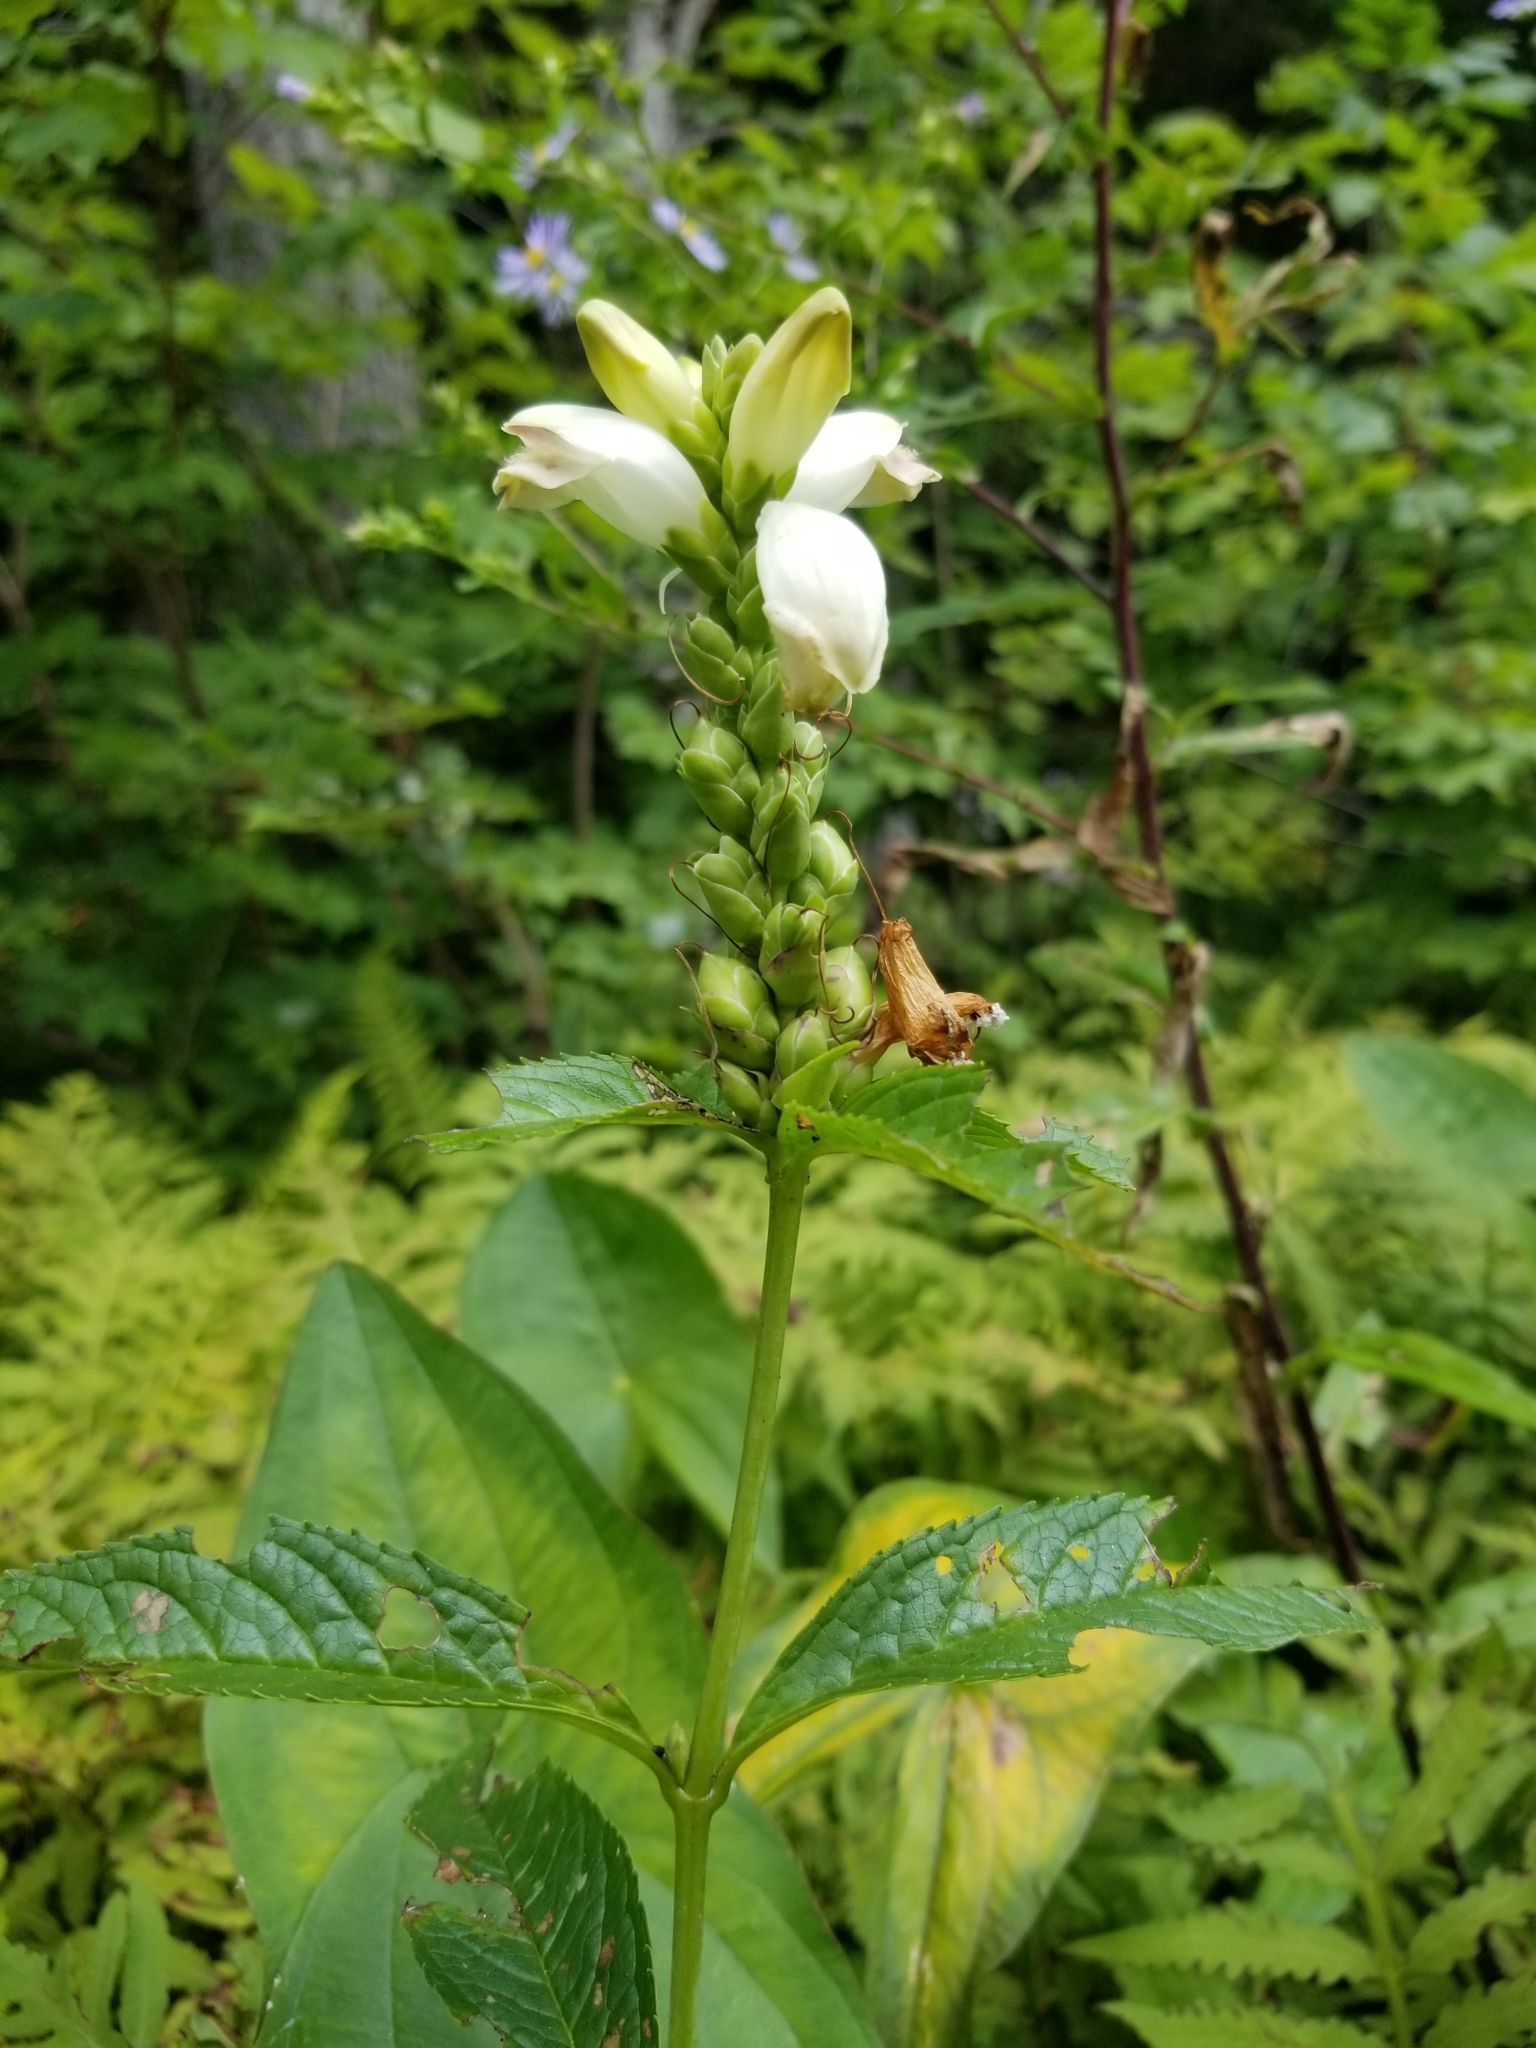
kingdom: Plantae
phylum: Tracheophyta
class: Magnoliopsida
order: Lamiales
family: Plantaginaceae
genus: Chelone
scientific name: Chelone glabra
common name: Snakehead
